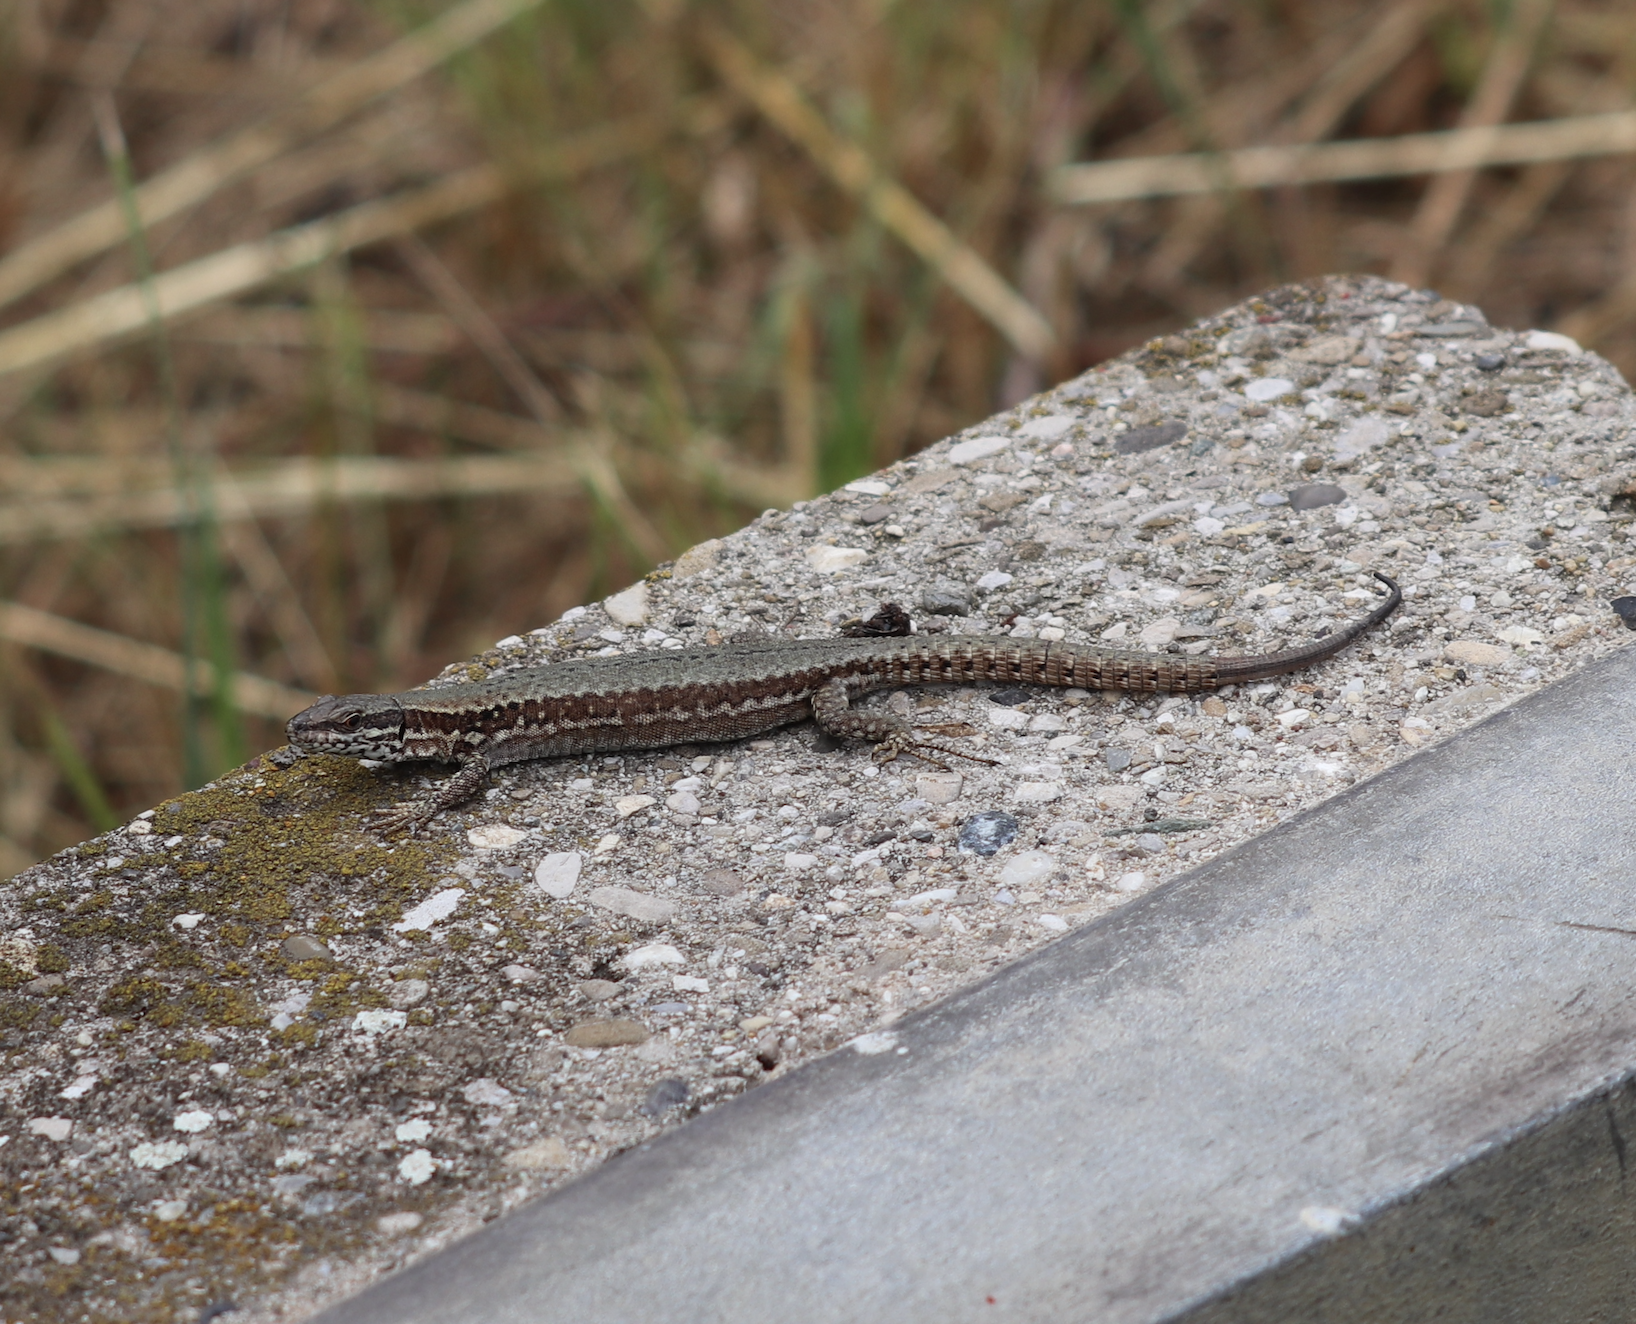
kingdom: Animalia
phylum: Chordata
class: Squamata
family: Lacertidae
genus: Podarcis
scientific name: Podarcis muralis
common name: Common wall lizard
